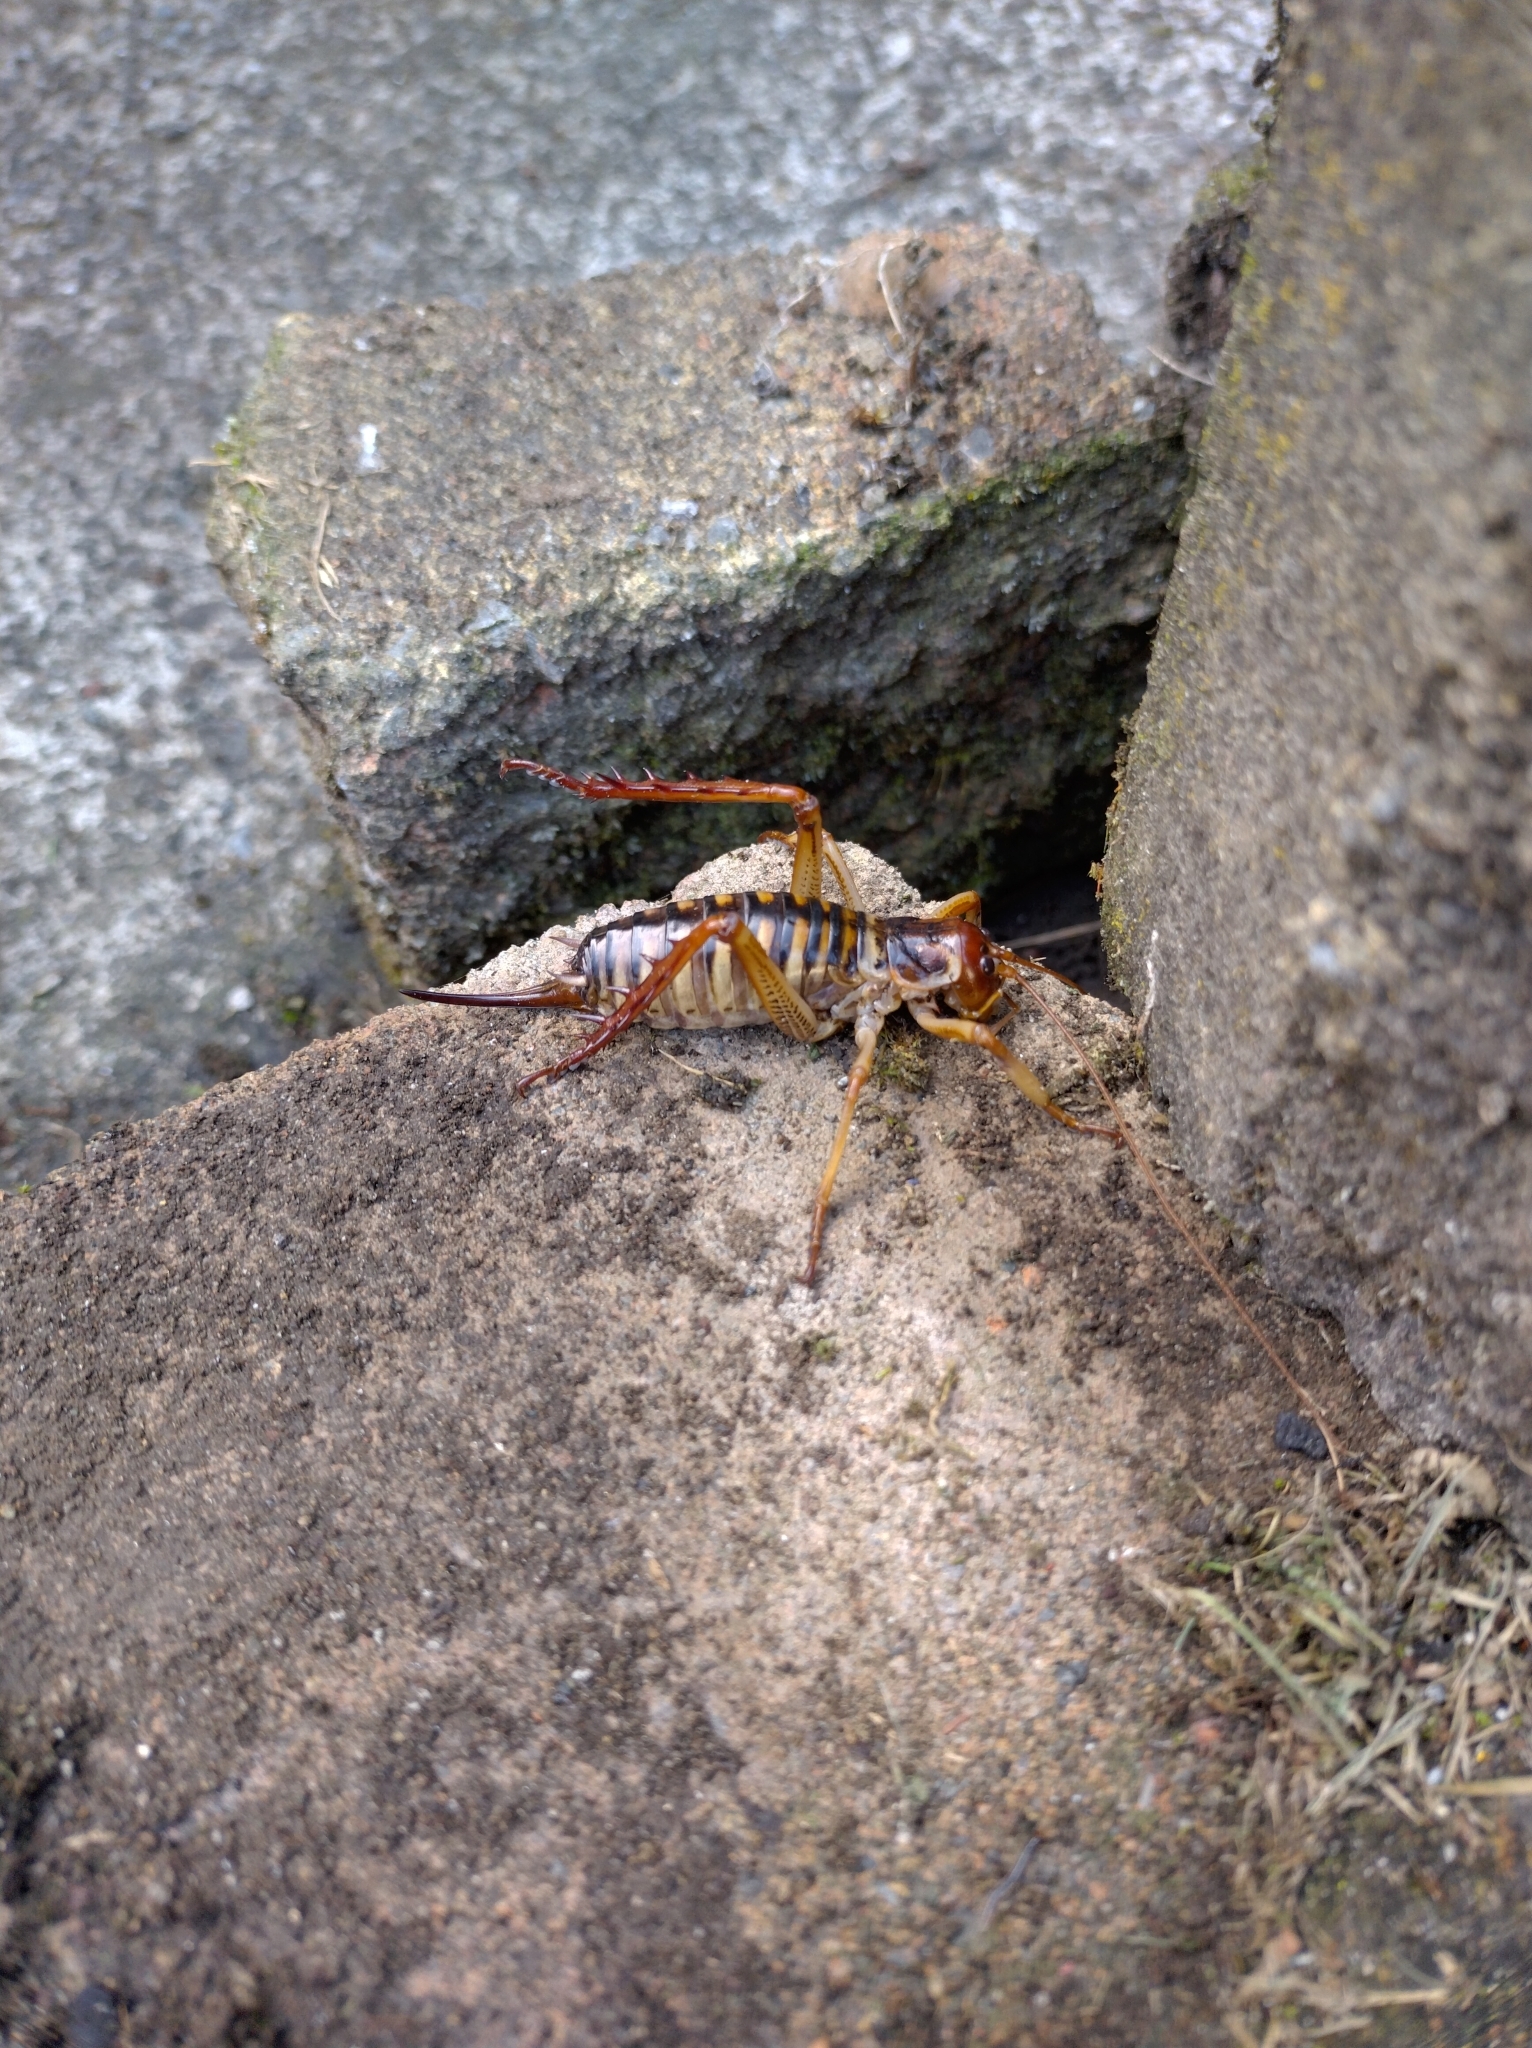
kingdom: Animalia
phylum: Arthropoda
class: Insecta
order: Orthoptera
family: Anostostomatidae
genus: Hemideina
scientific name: Hemideina crassidens
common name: Wellington tree weta
